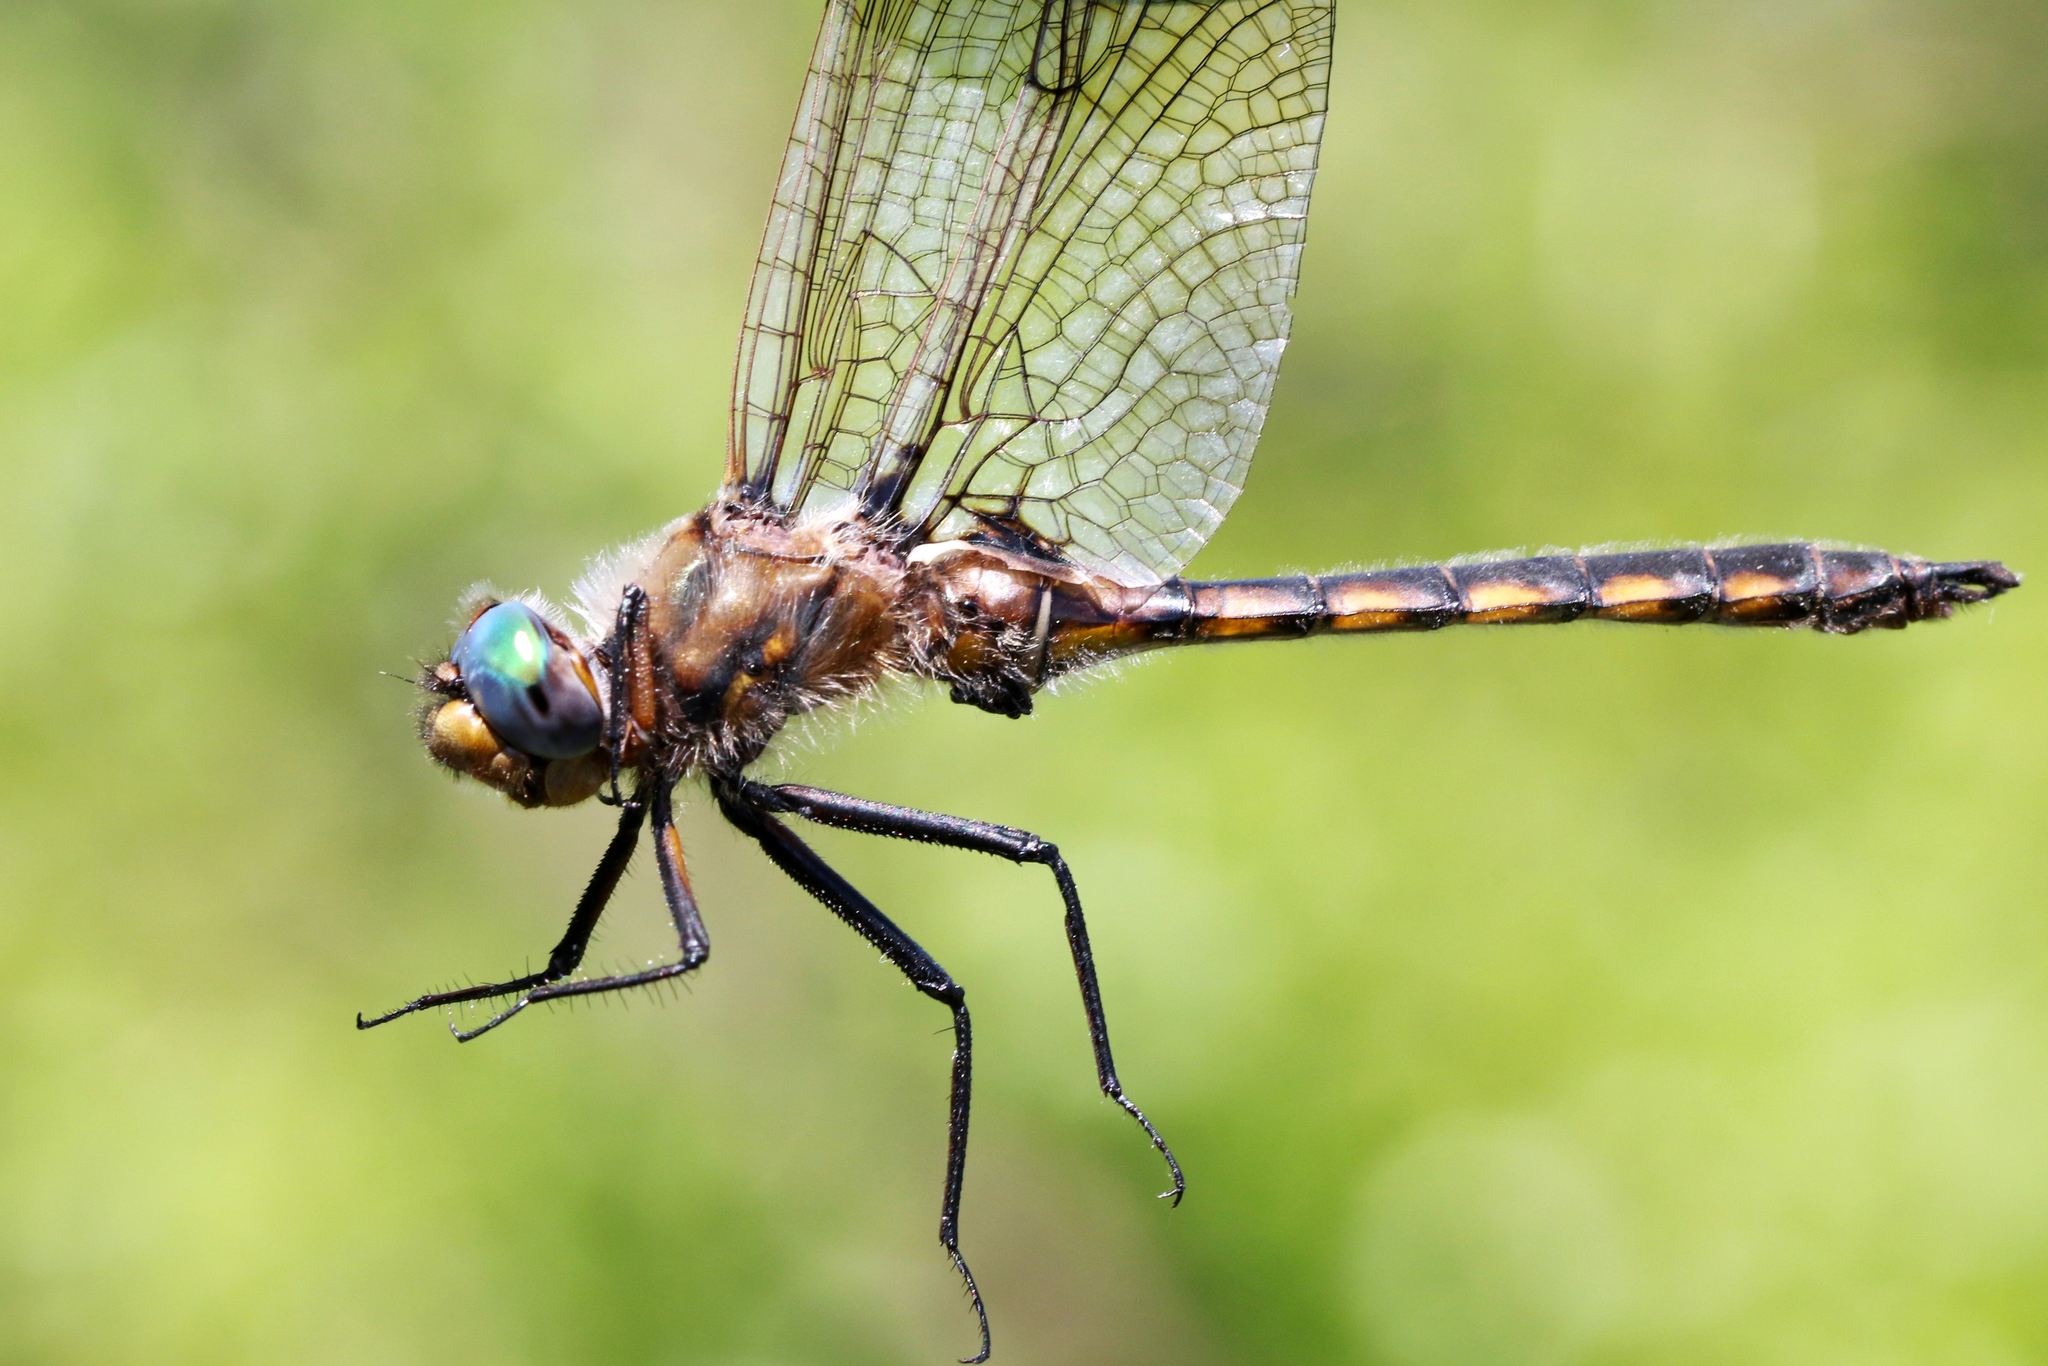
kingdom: Animalia
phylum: Arthropoda
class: Insecta
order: Odonata
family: Corduliidae
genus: Epitheca
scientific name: Epitheca canis
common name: Beaverpond baskettail
